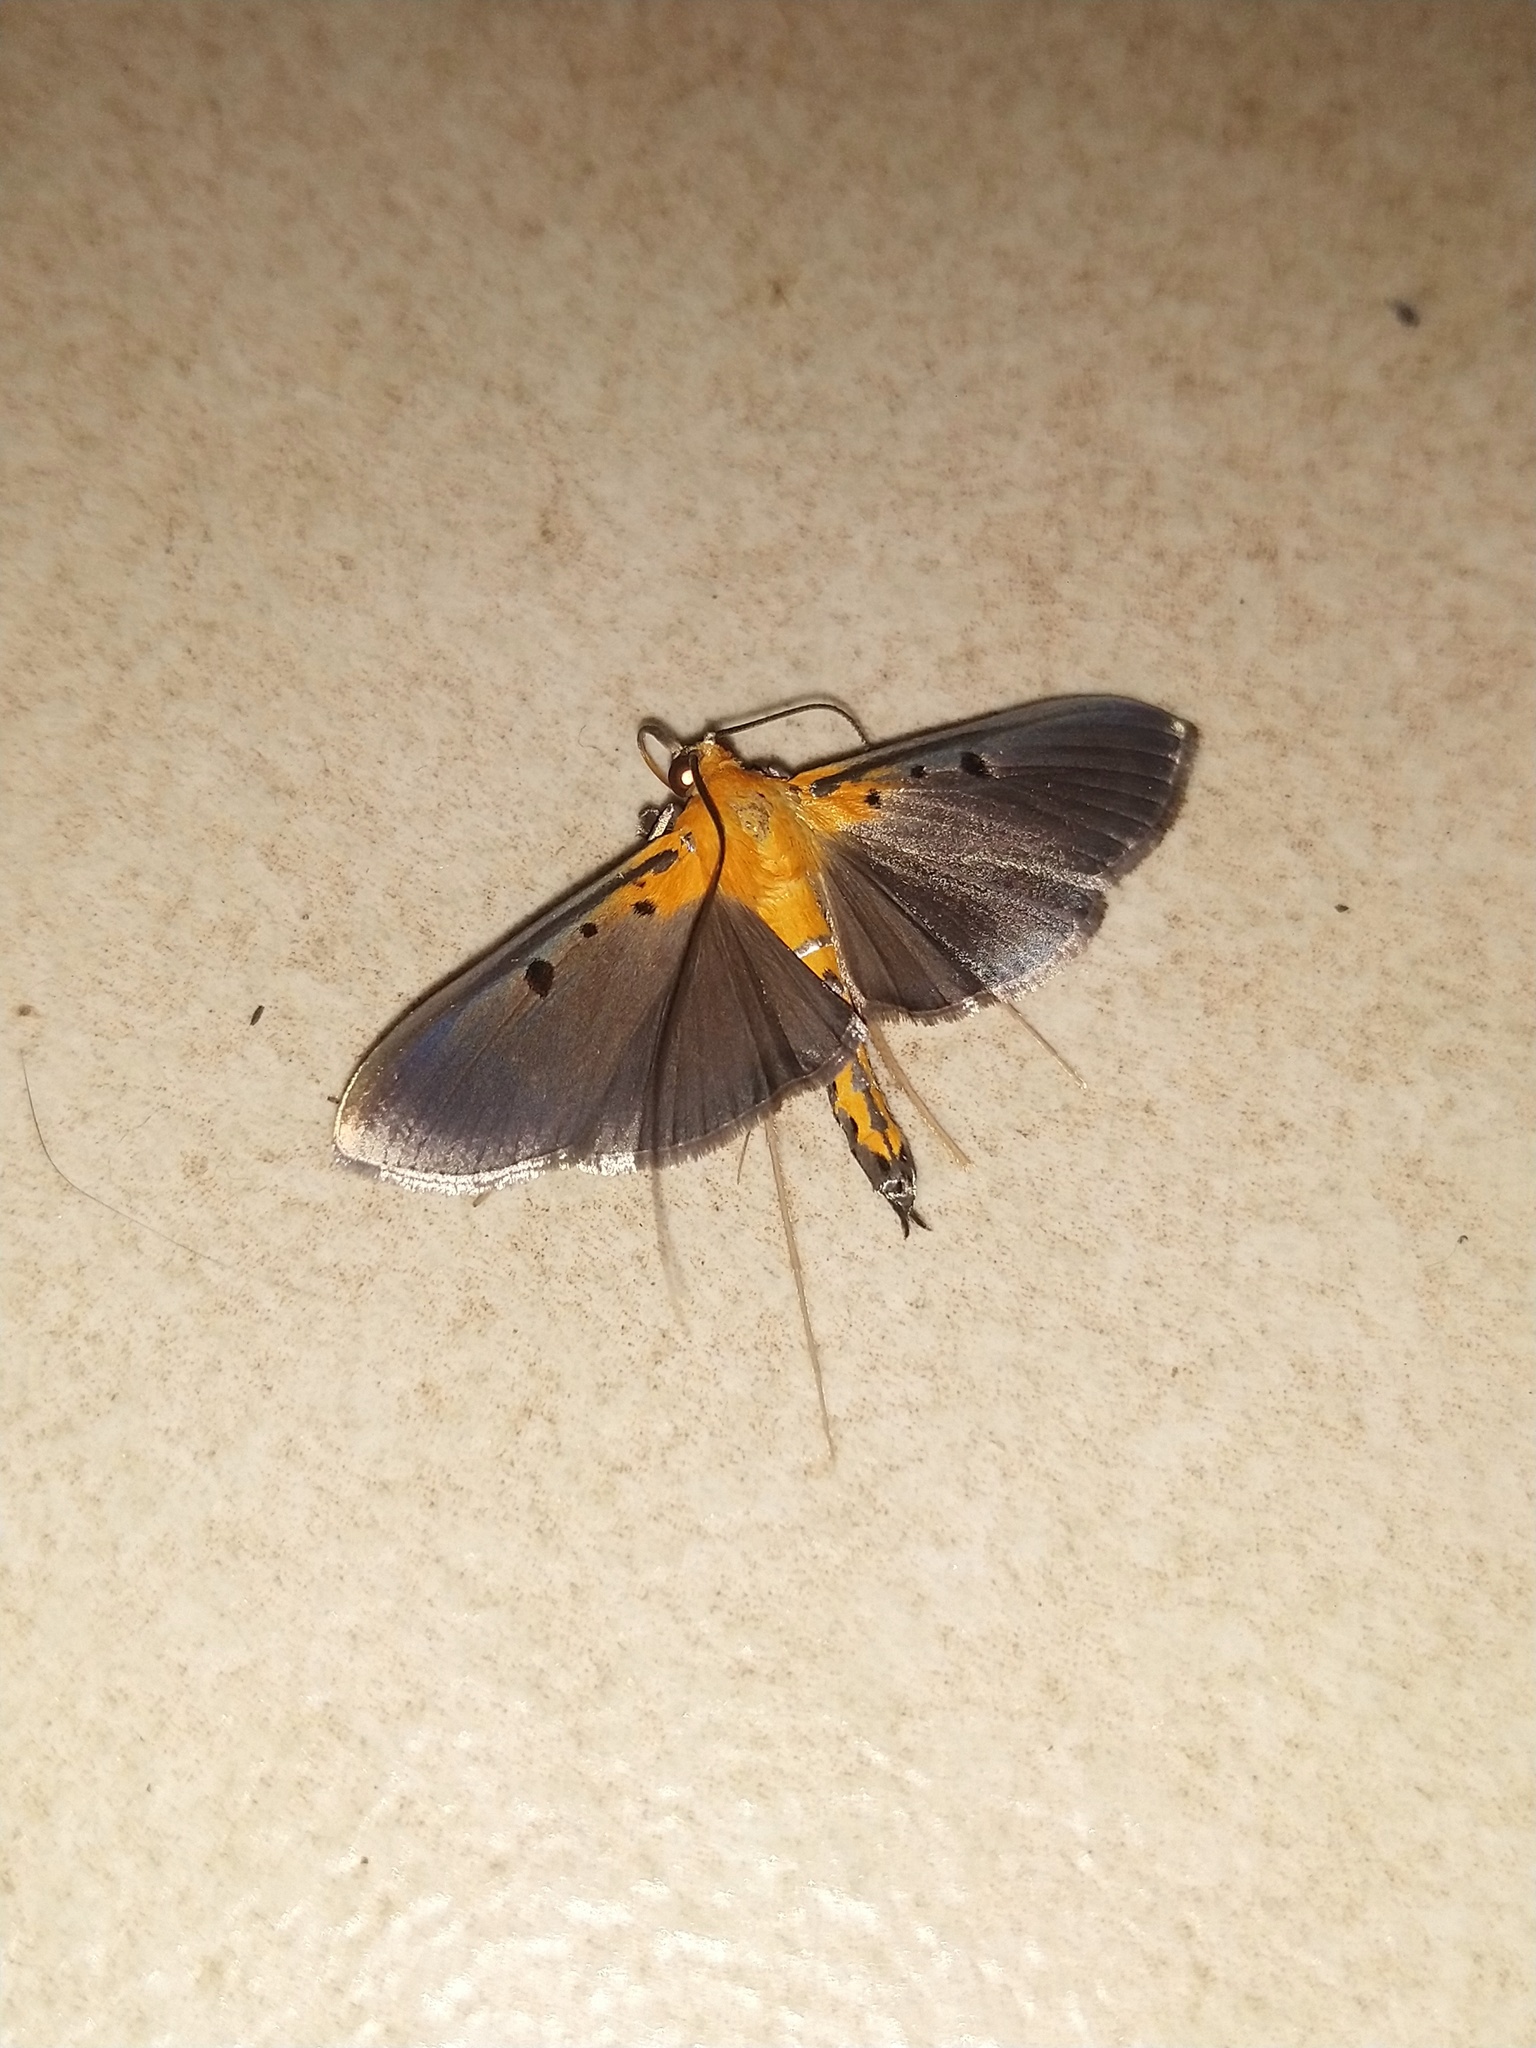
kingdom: Animalia
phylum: Arthropoda
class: Insecta
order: Lepidoptera
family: Crambidae
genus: Filodes
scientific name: Filodes fulvidorsalis
